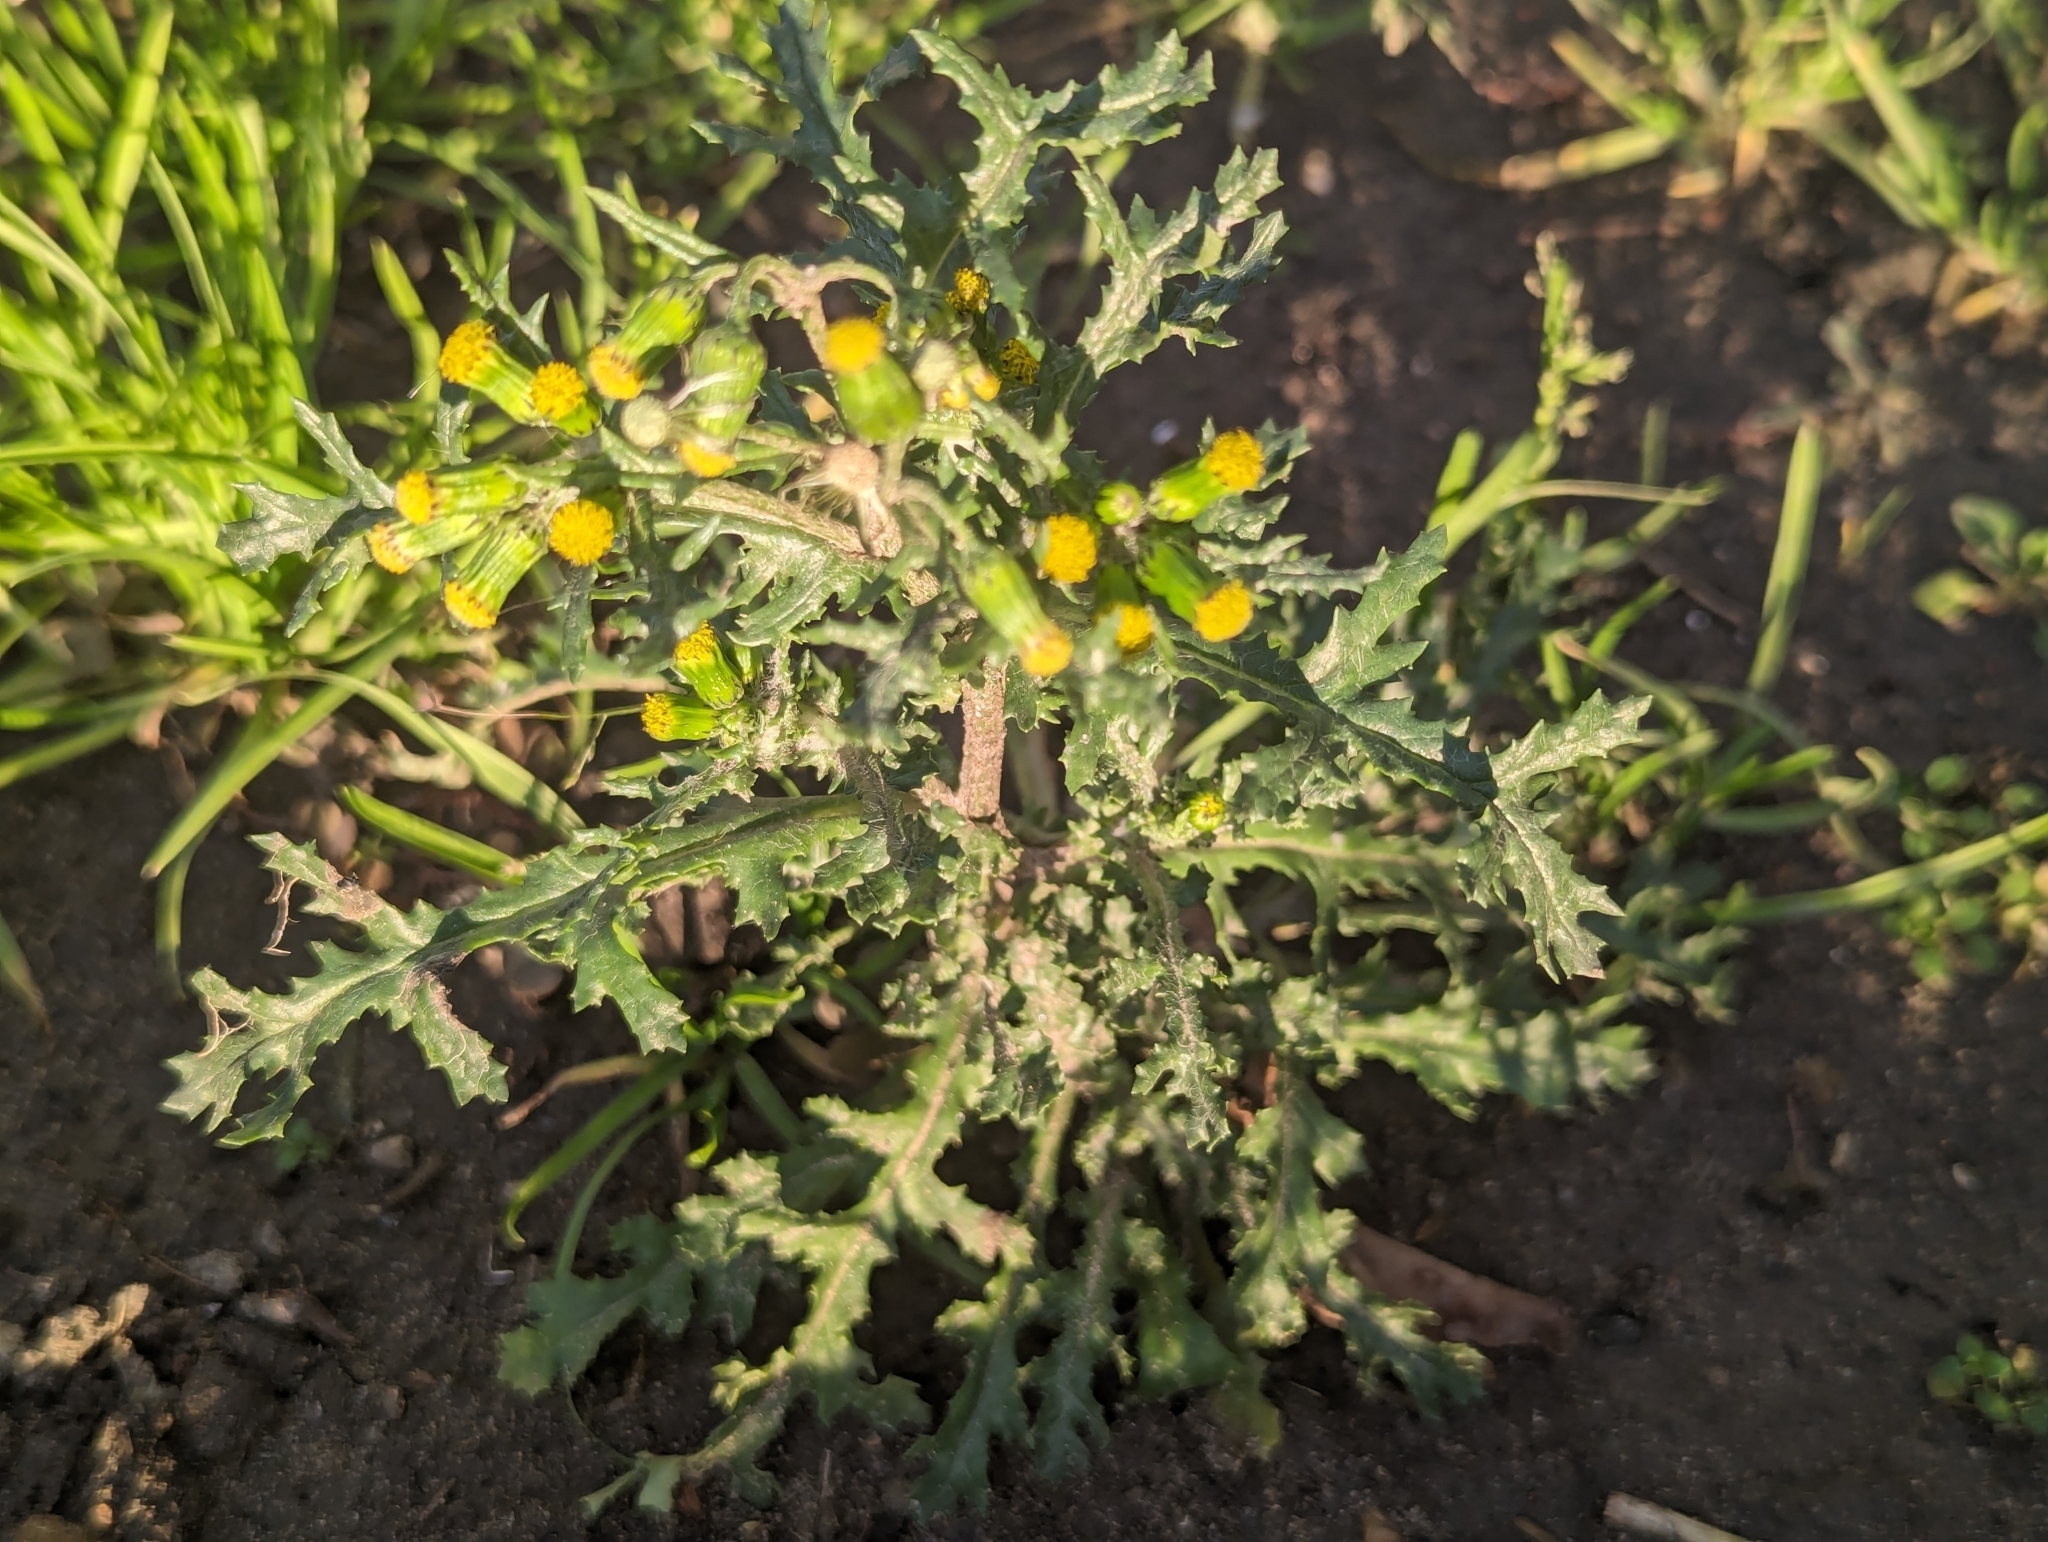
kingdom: Plantae
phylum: Tracheophyta
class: Magnoliopsida
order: Asterales
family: Asteraceae
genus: Senecio
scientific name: Senecio vulgaris
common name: Old-man-in-the-spring
